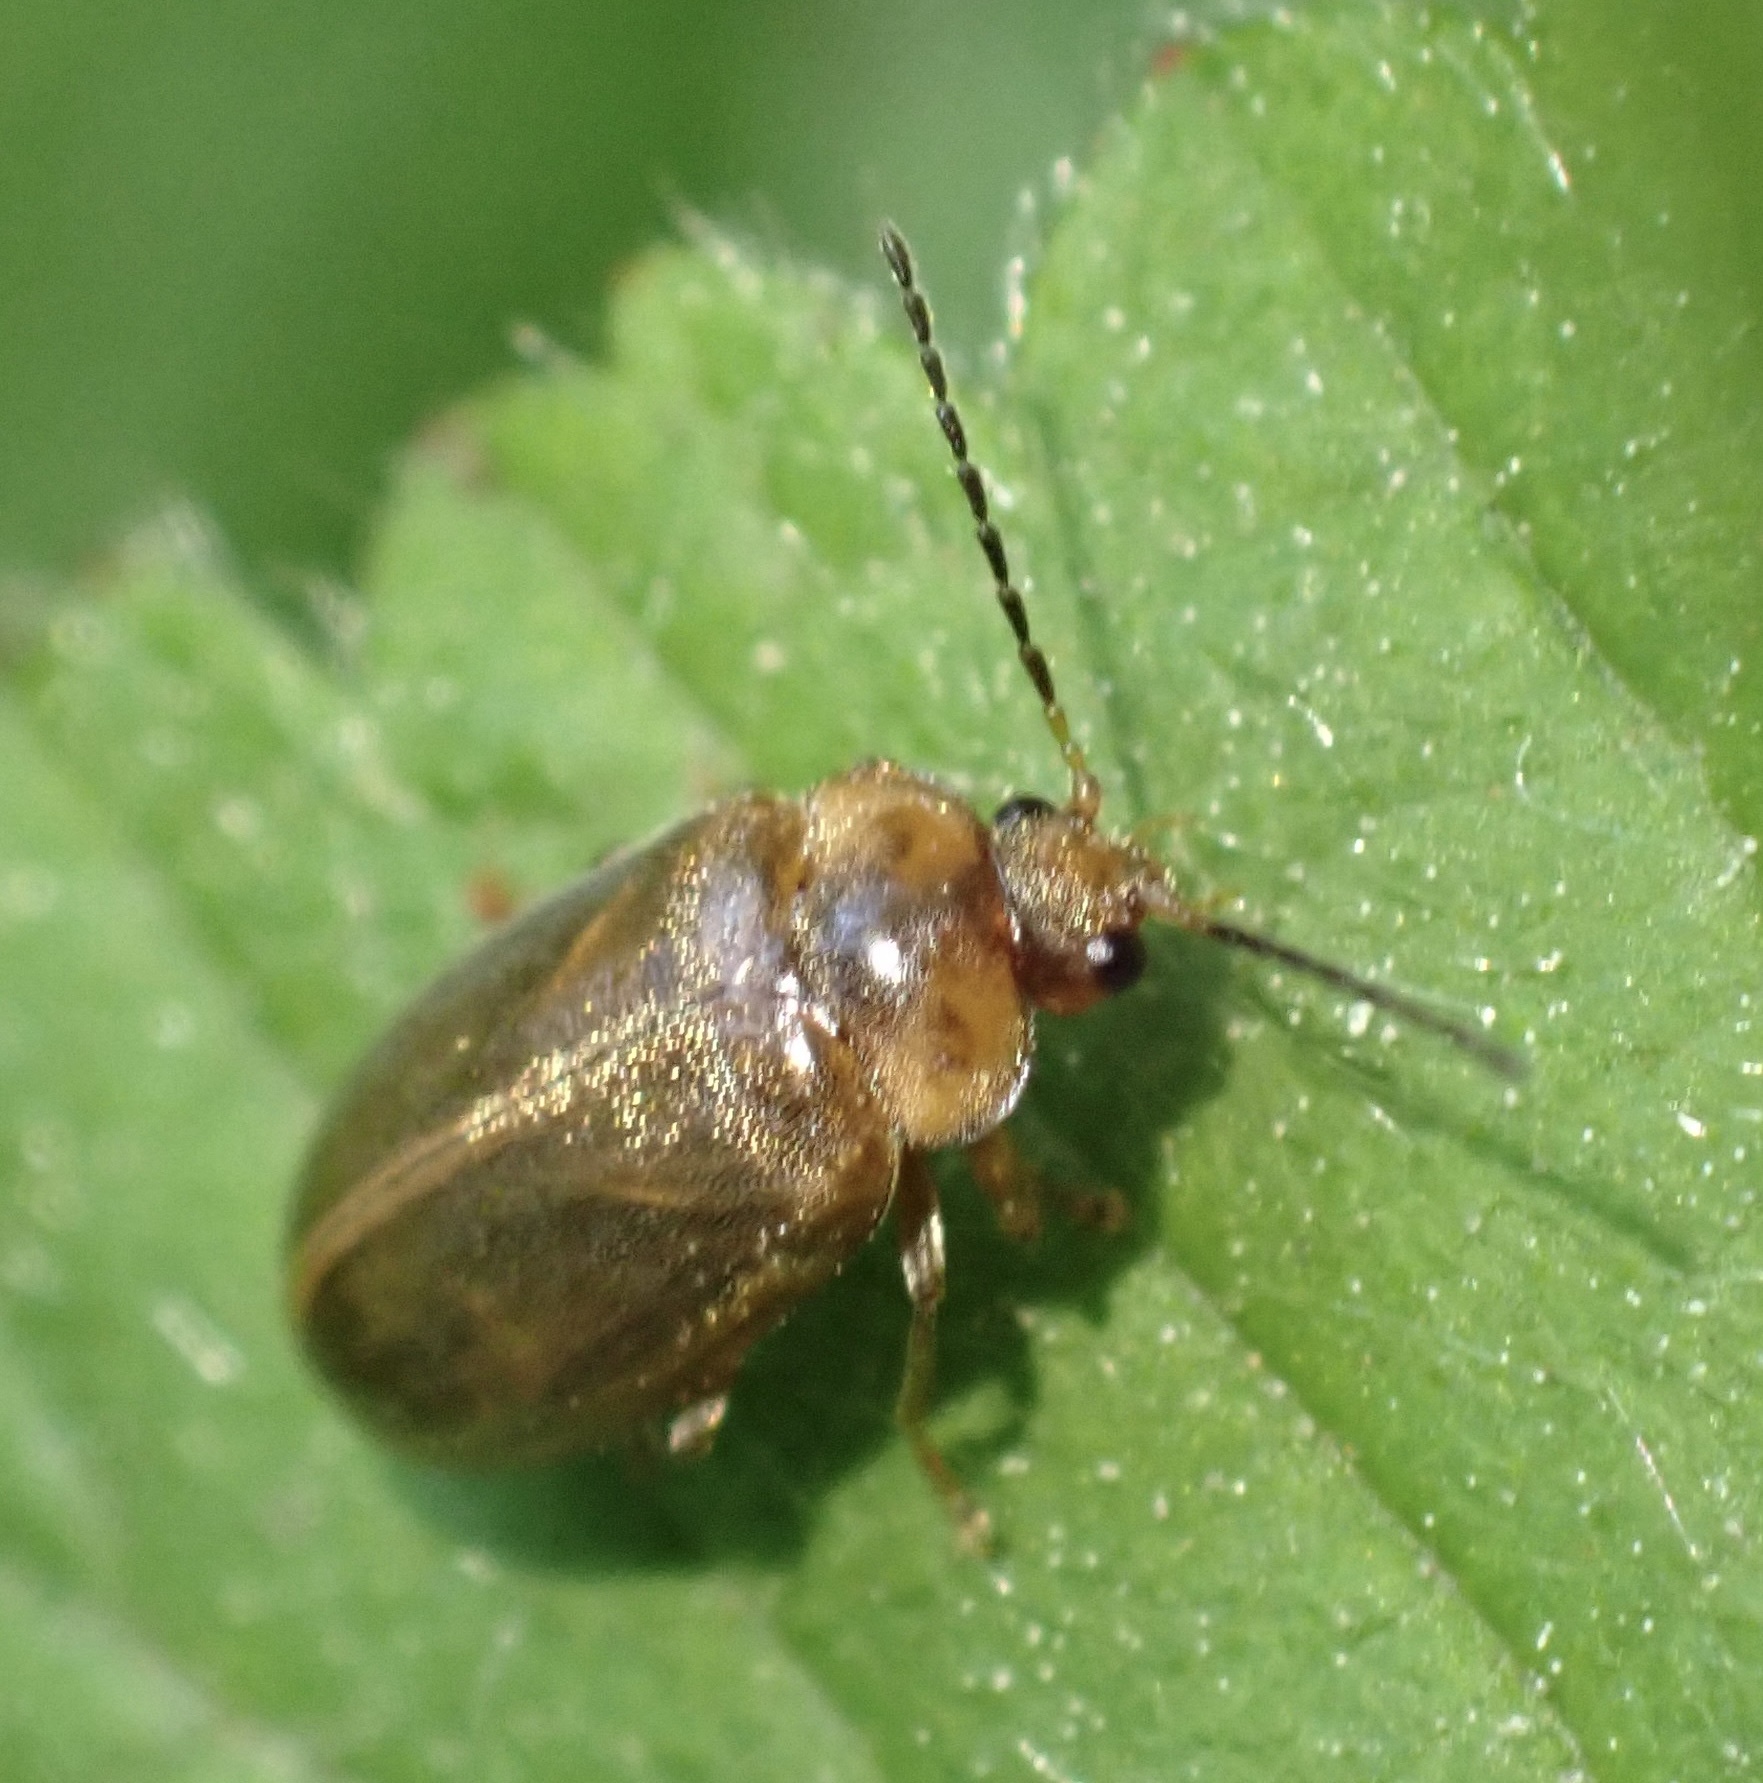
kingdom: Animalia
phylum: Arthropoda
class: Insecta
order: Coleoptera
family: Scirtidae
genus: Microcara
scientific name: Microcara testacea
